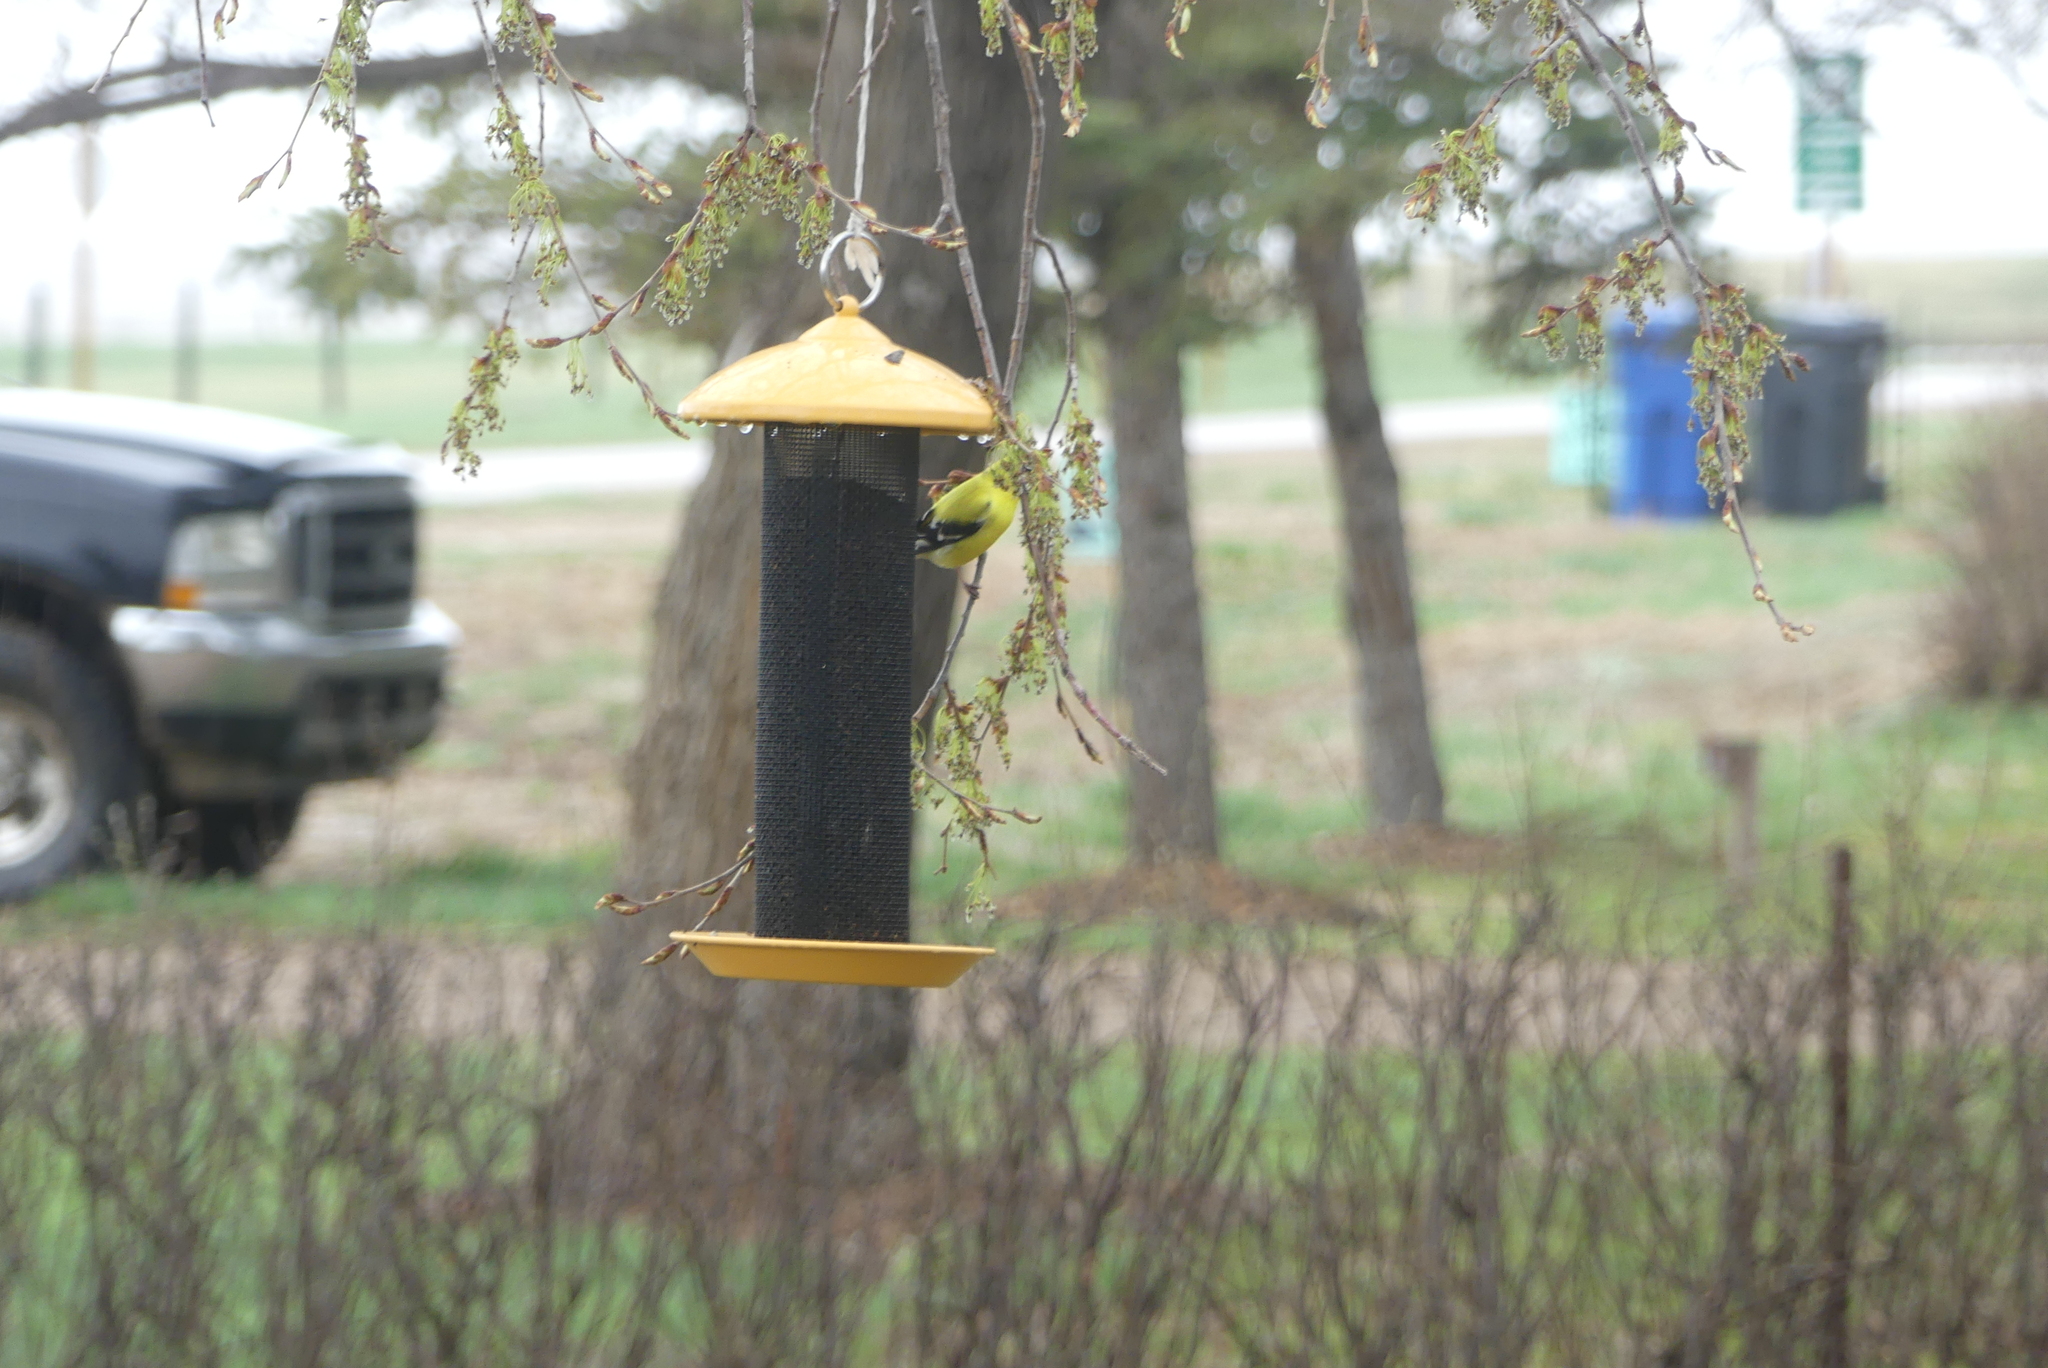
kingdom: Animalia
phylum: Chordata
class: Aves
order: Passeriformes
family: Fringillidae
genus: Spinus
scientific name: Spinus tristis
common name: American goldfinch
